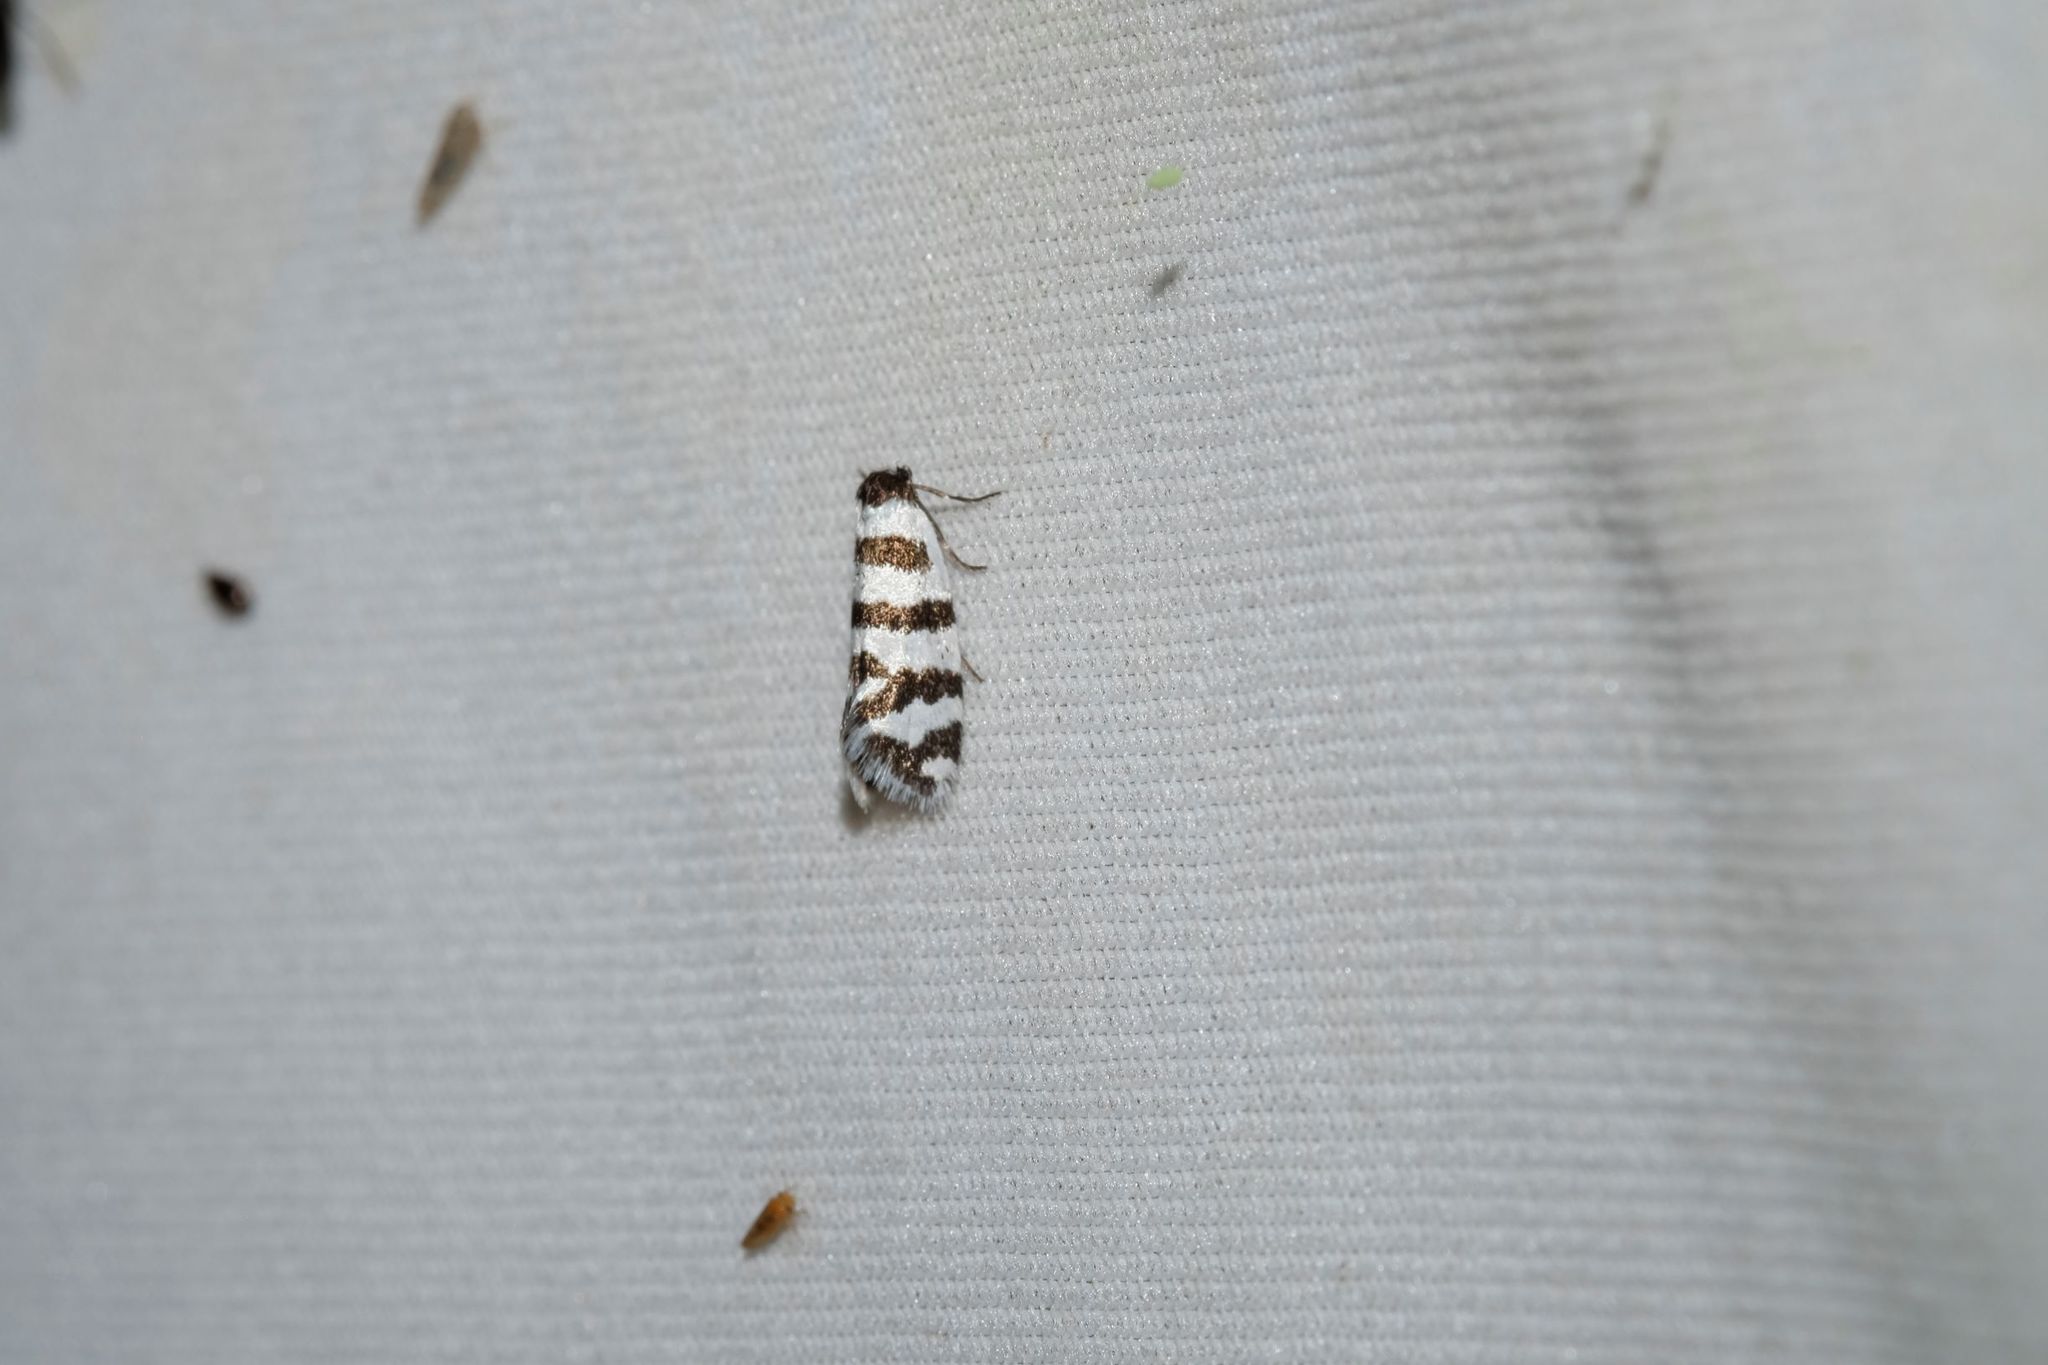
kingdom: Animalia
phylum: Arthropoda
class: Insecta
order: Lepidoptera
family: Psychidae
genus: Lepidoscia
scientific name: Lepidoscia cataphracta
